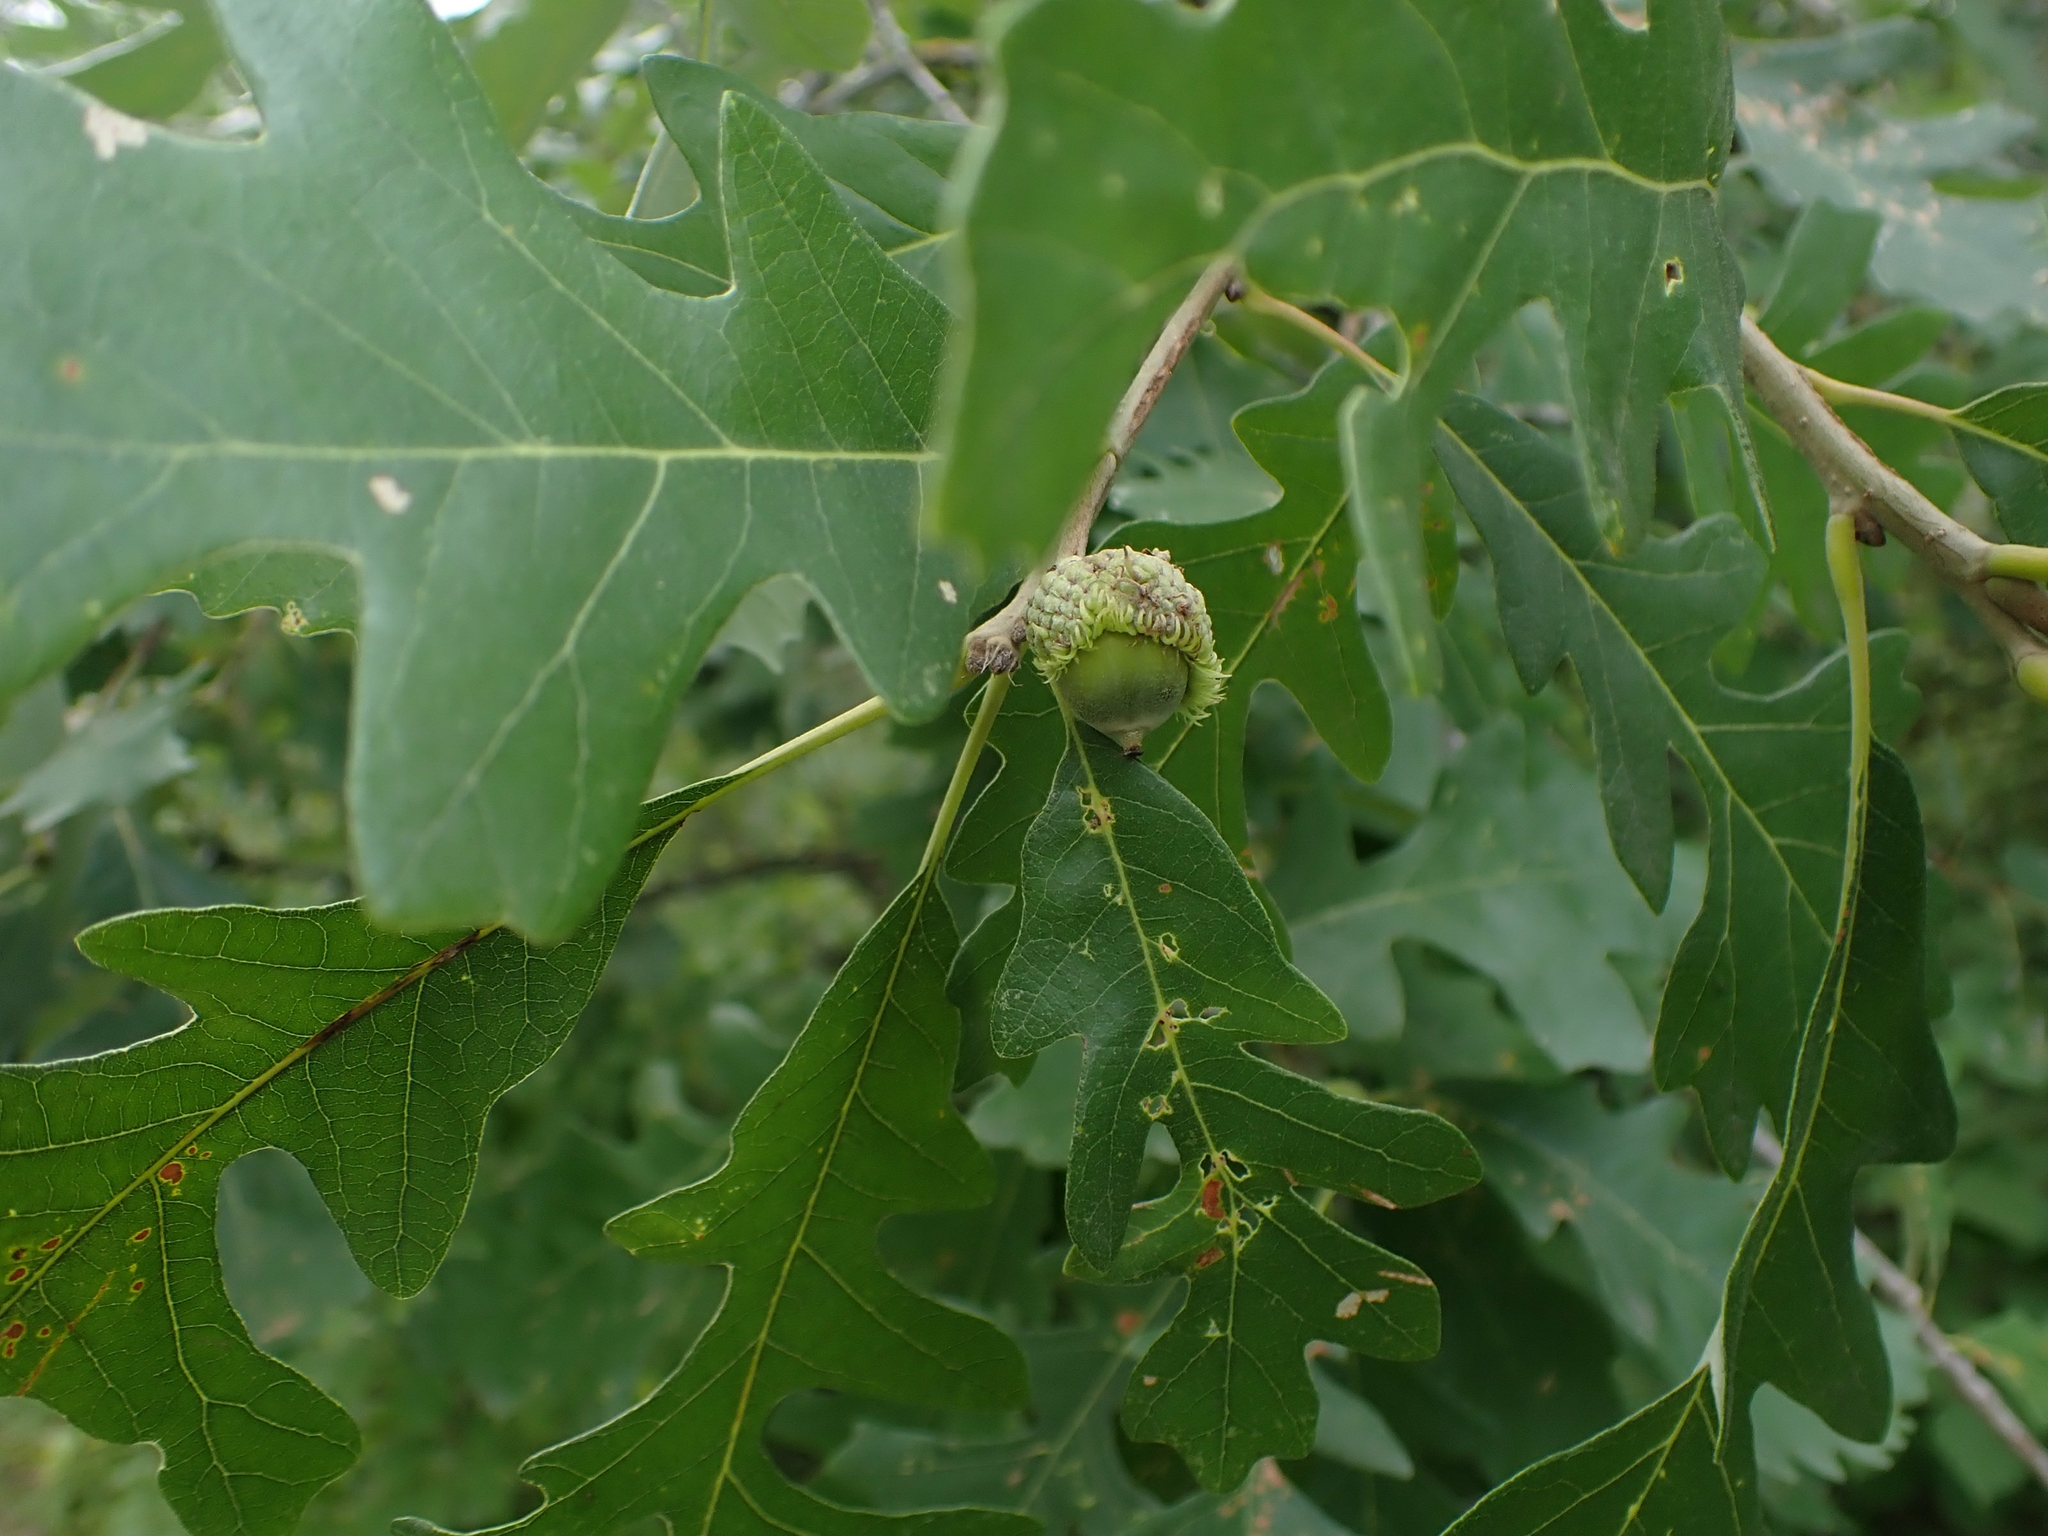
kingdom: Plantae
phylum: Tracheophyta
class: Magnoliopsida
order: Fagales
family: Fagaceae
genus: Quercus
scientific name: Quercus macrocarpa
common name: Bur oak
